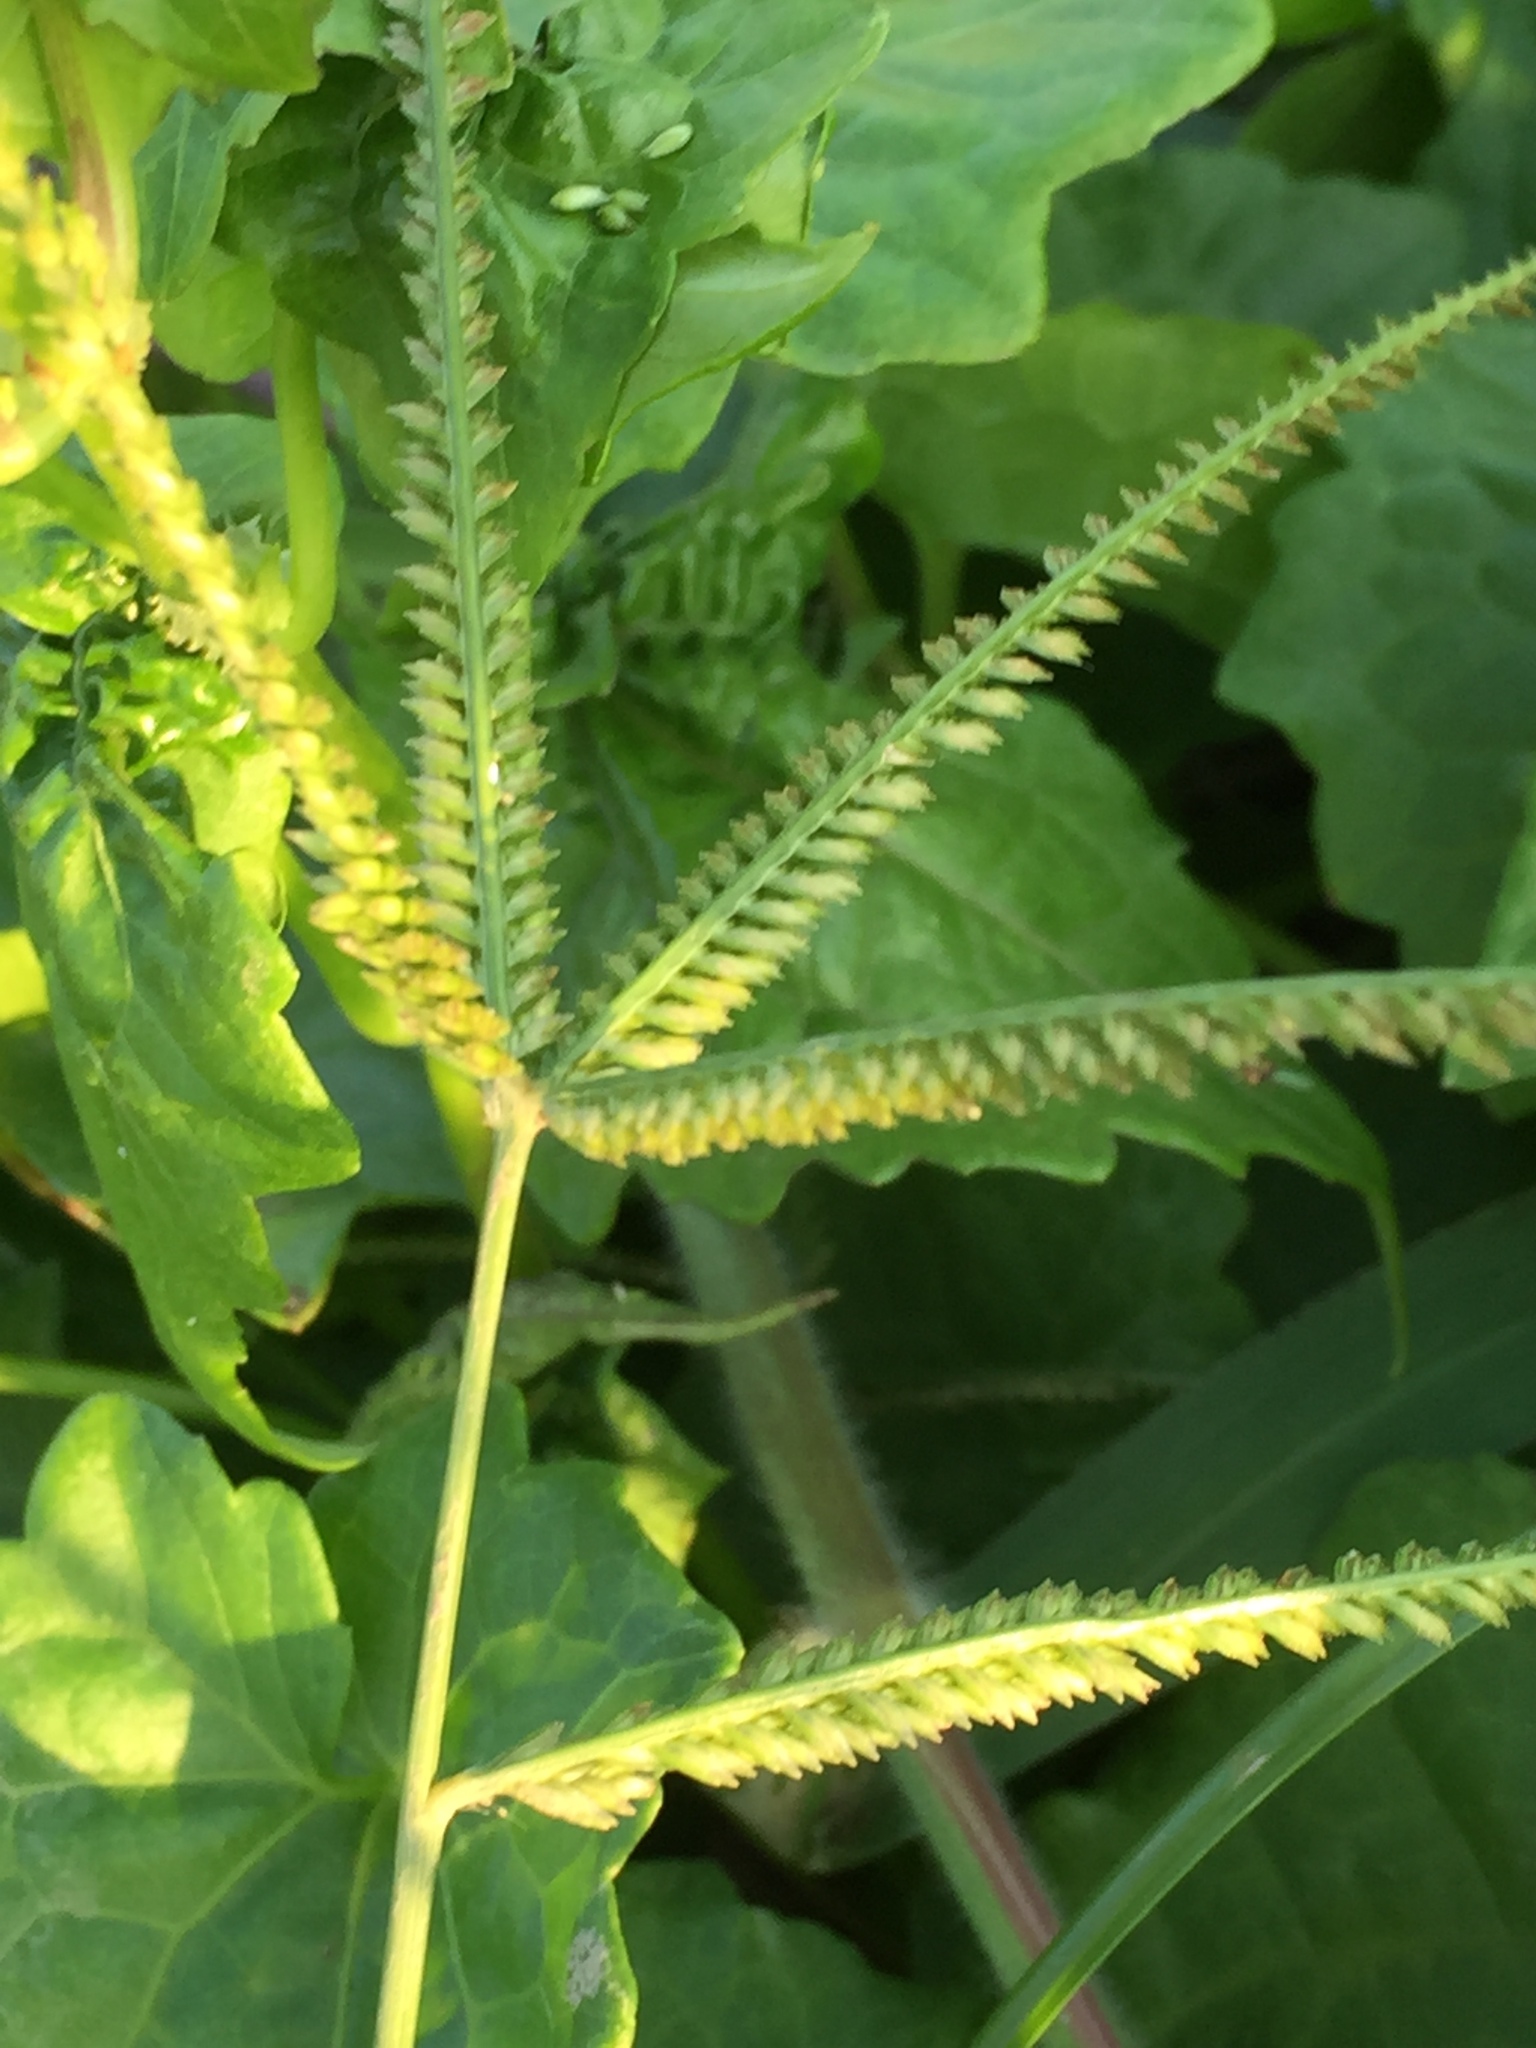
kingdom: Plantae
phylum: Tracheophyta
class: Liliopsida
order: Poales
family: Poaceae
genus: Eleusine
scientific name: Eleusine indica
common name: Yard-grass
